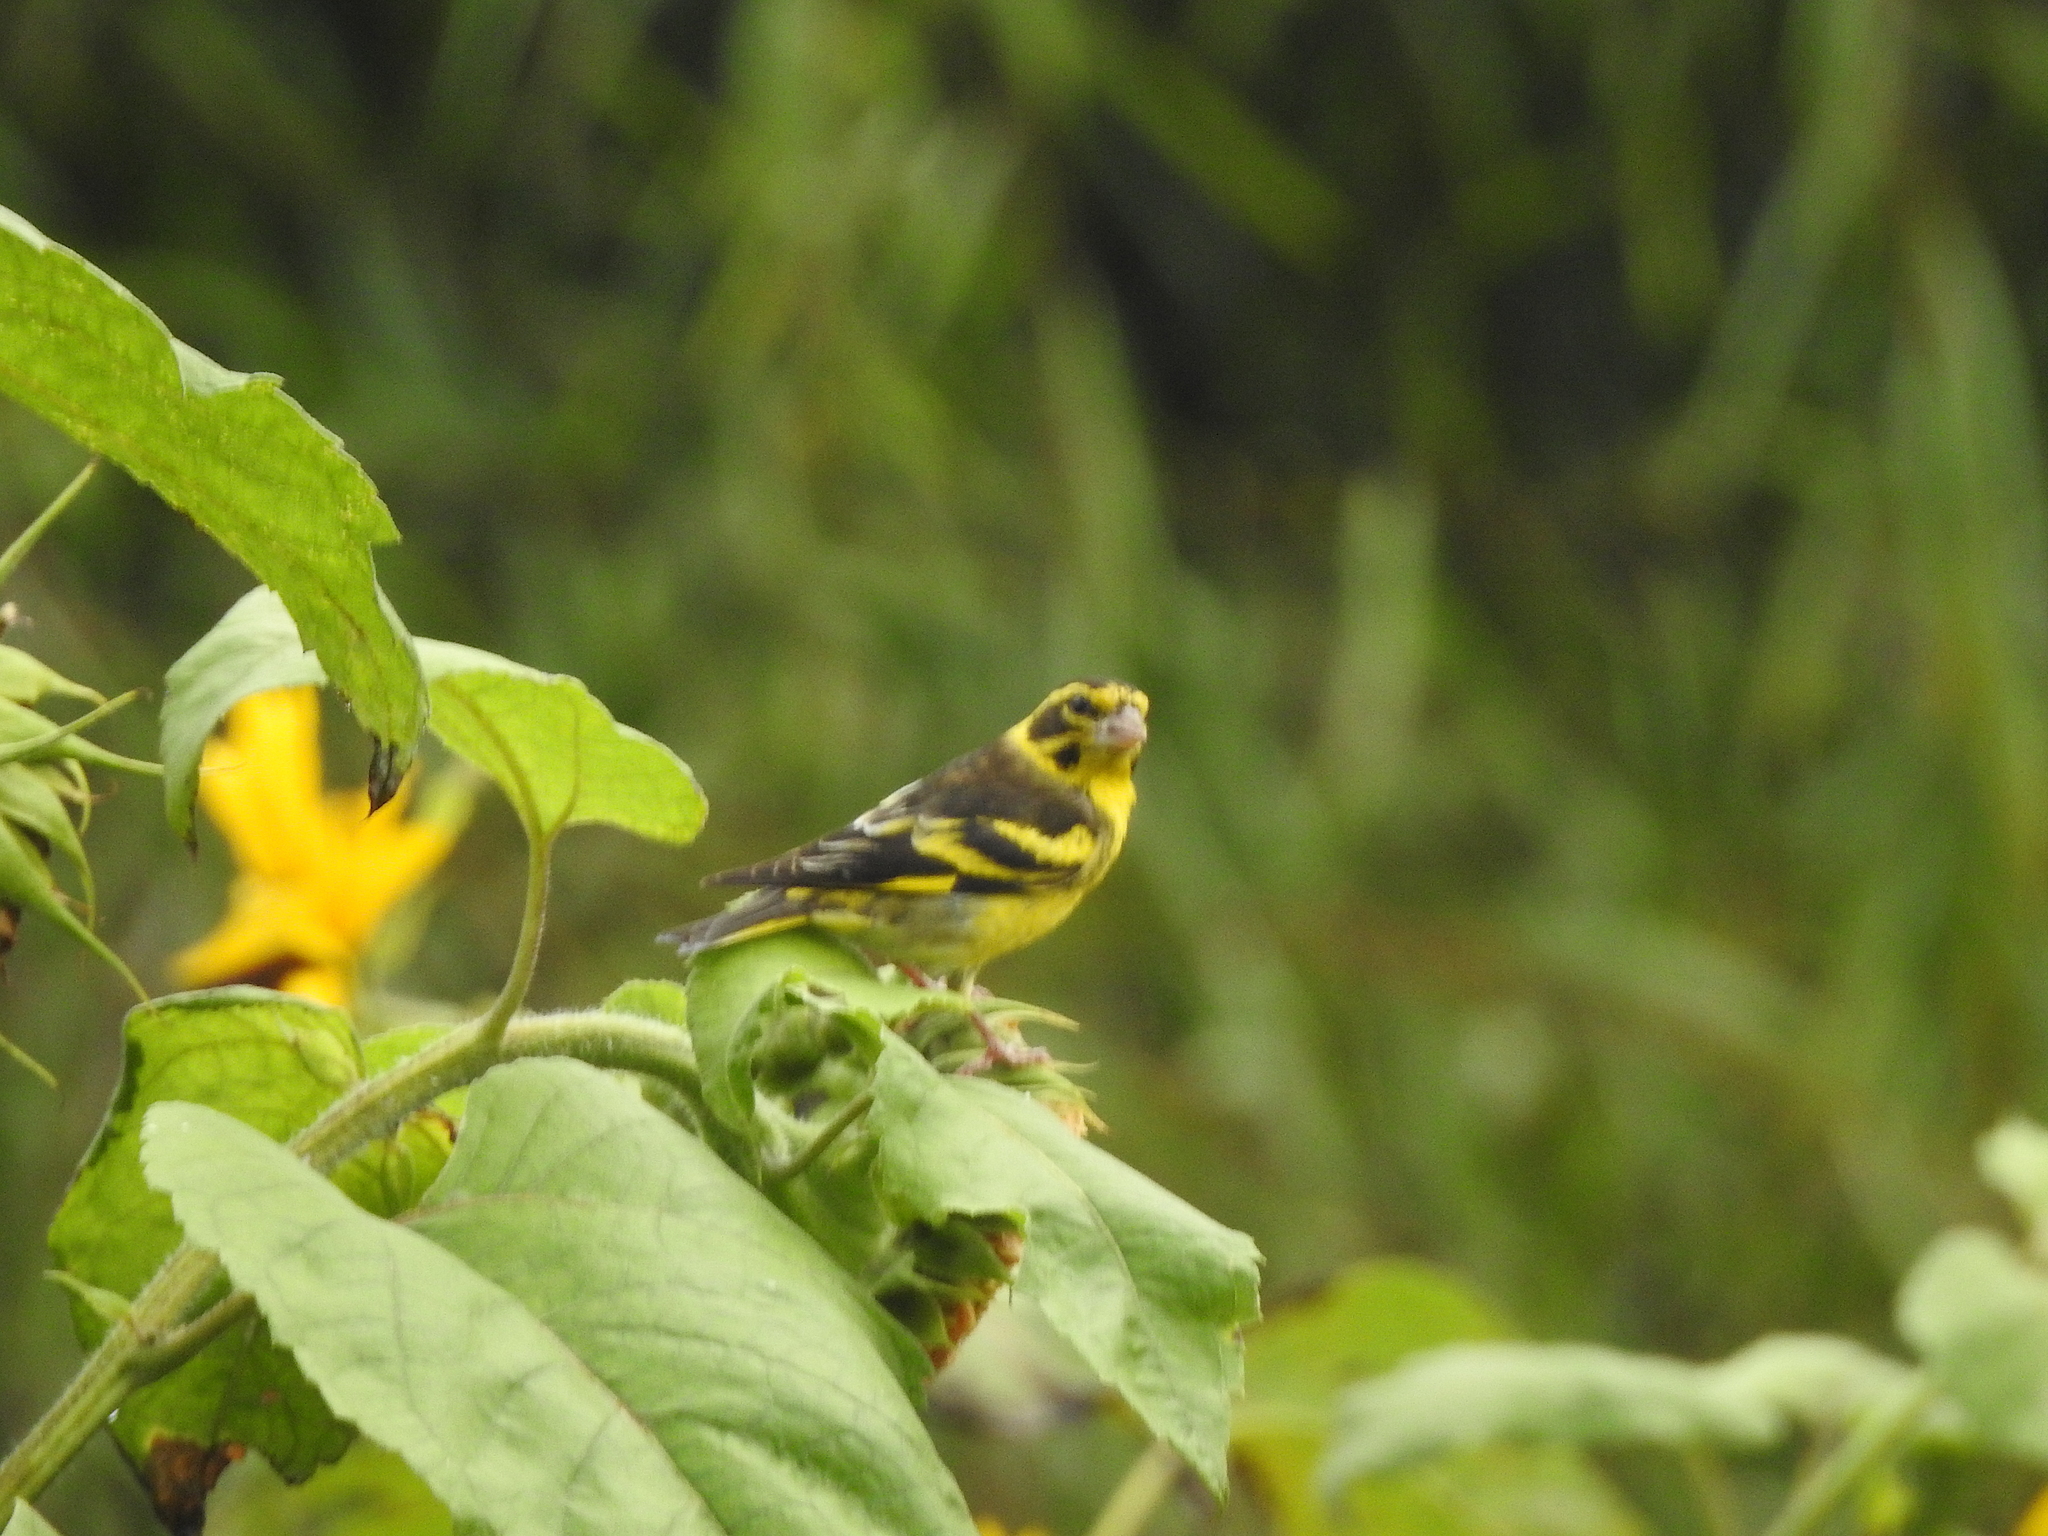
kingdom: Animalia
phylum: Chordata
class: Aves
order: Passeriformes
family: Fringillidae
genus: Chloris
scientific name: Chloris spinoides
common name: Yellow-breasted greenfinch
